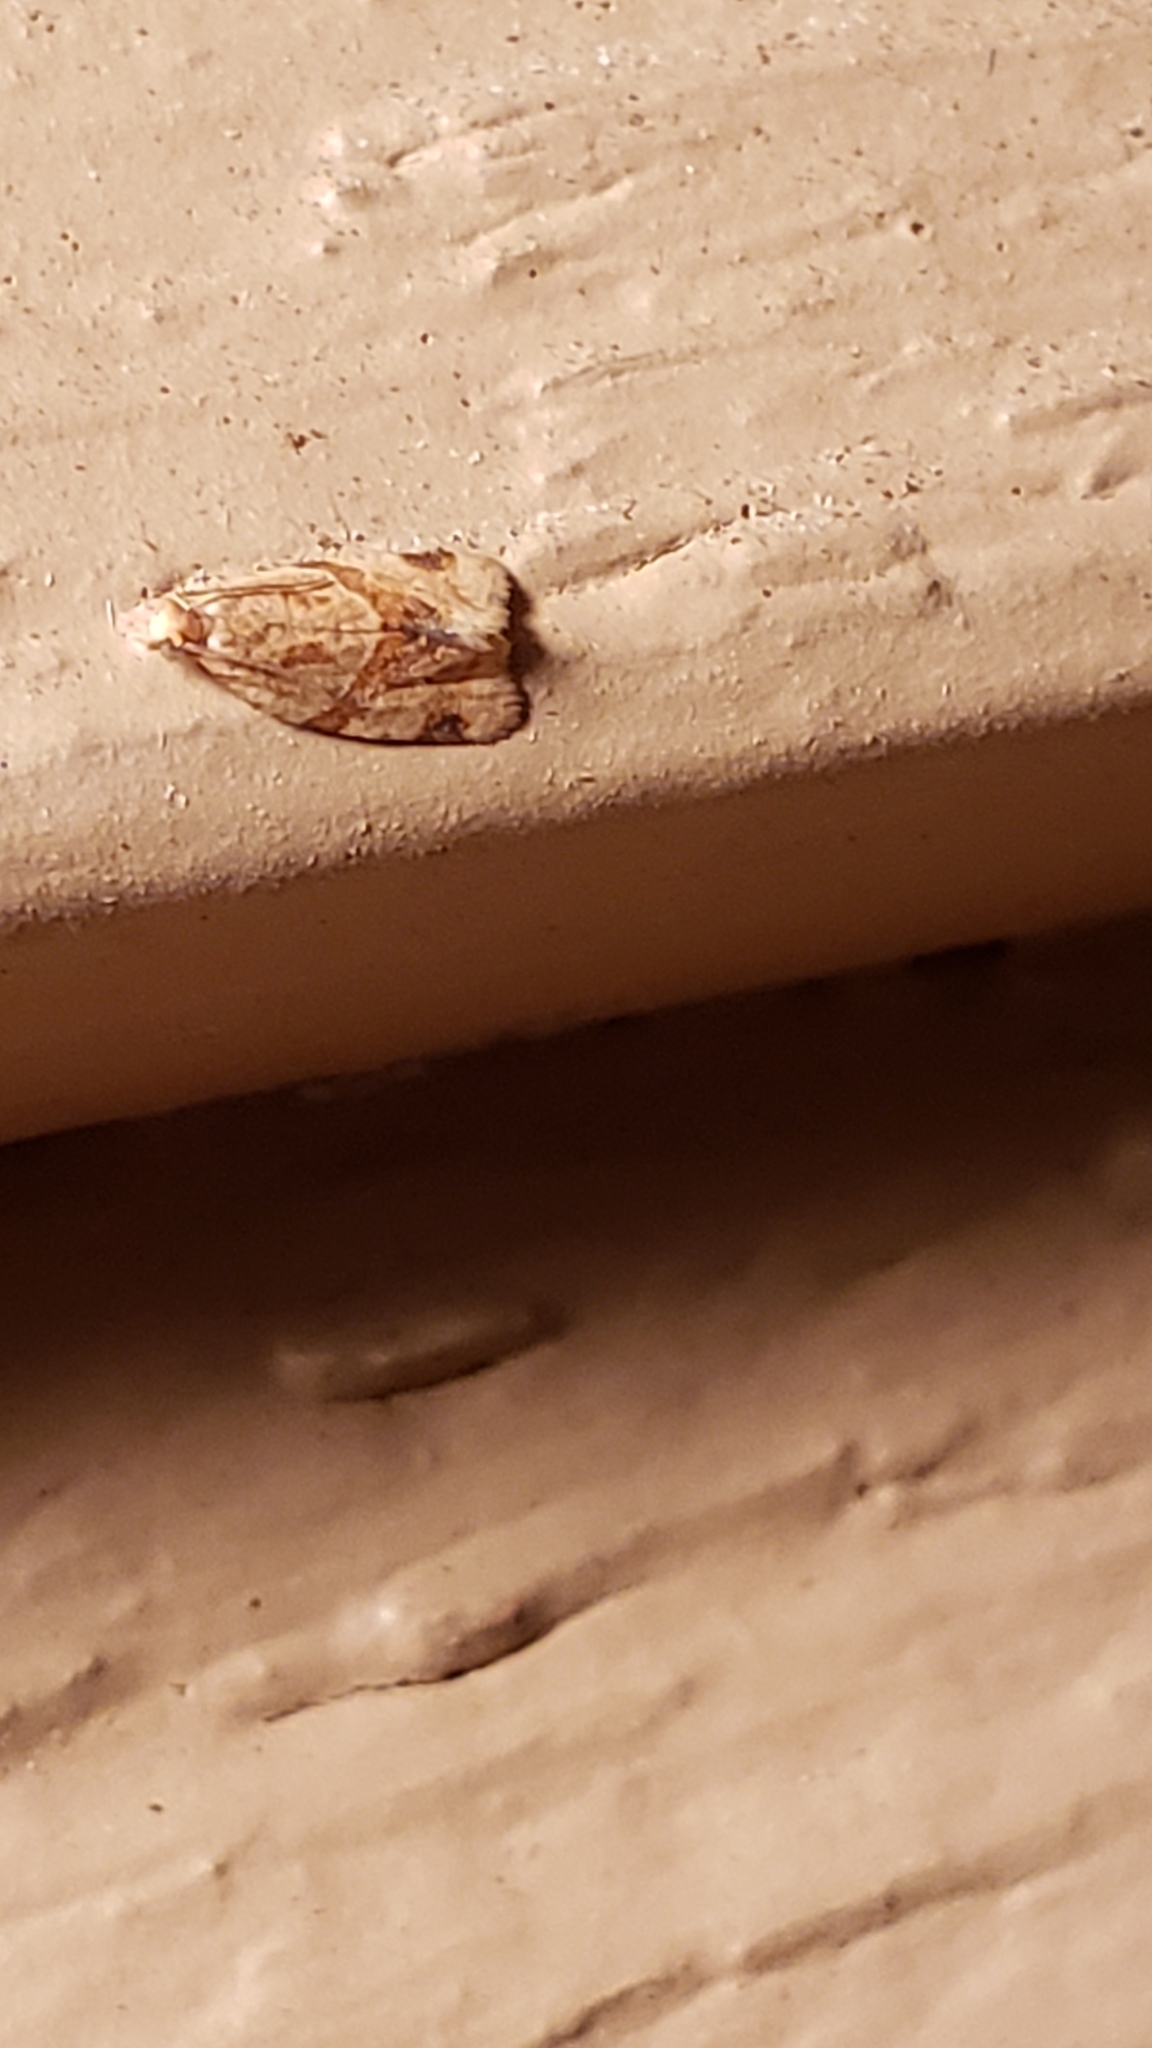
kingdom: Animalia
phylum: Arthropoda
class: Insecta
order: Lepidoptera
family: Tortricidae
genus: Clepsis
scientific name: Clepsis peritana
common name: Garden tortrix
